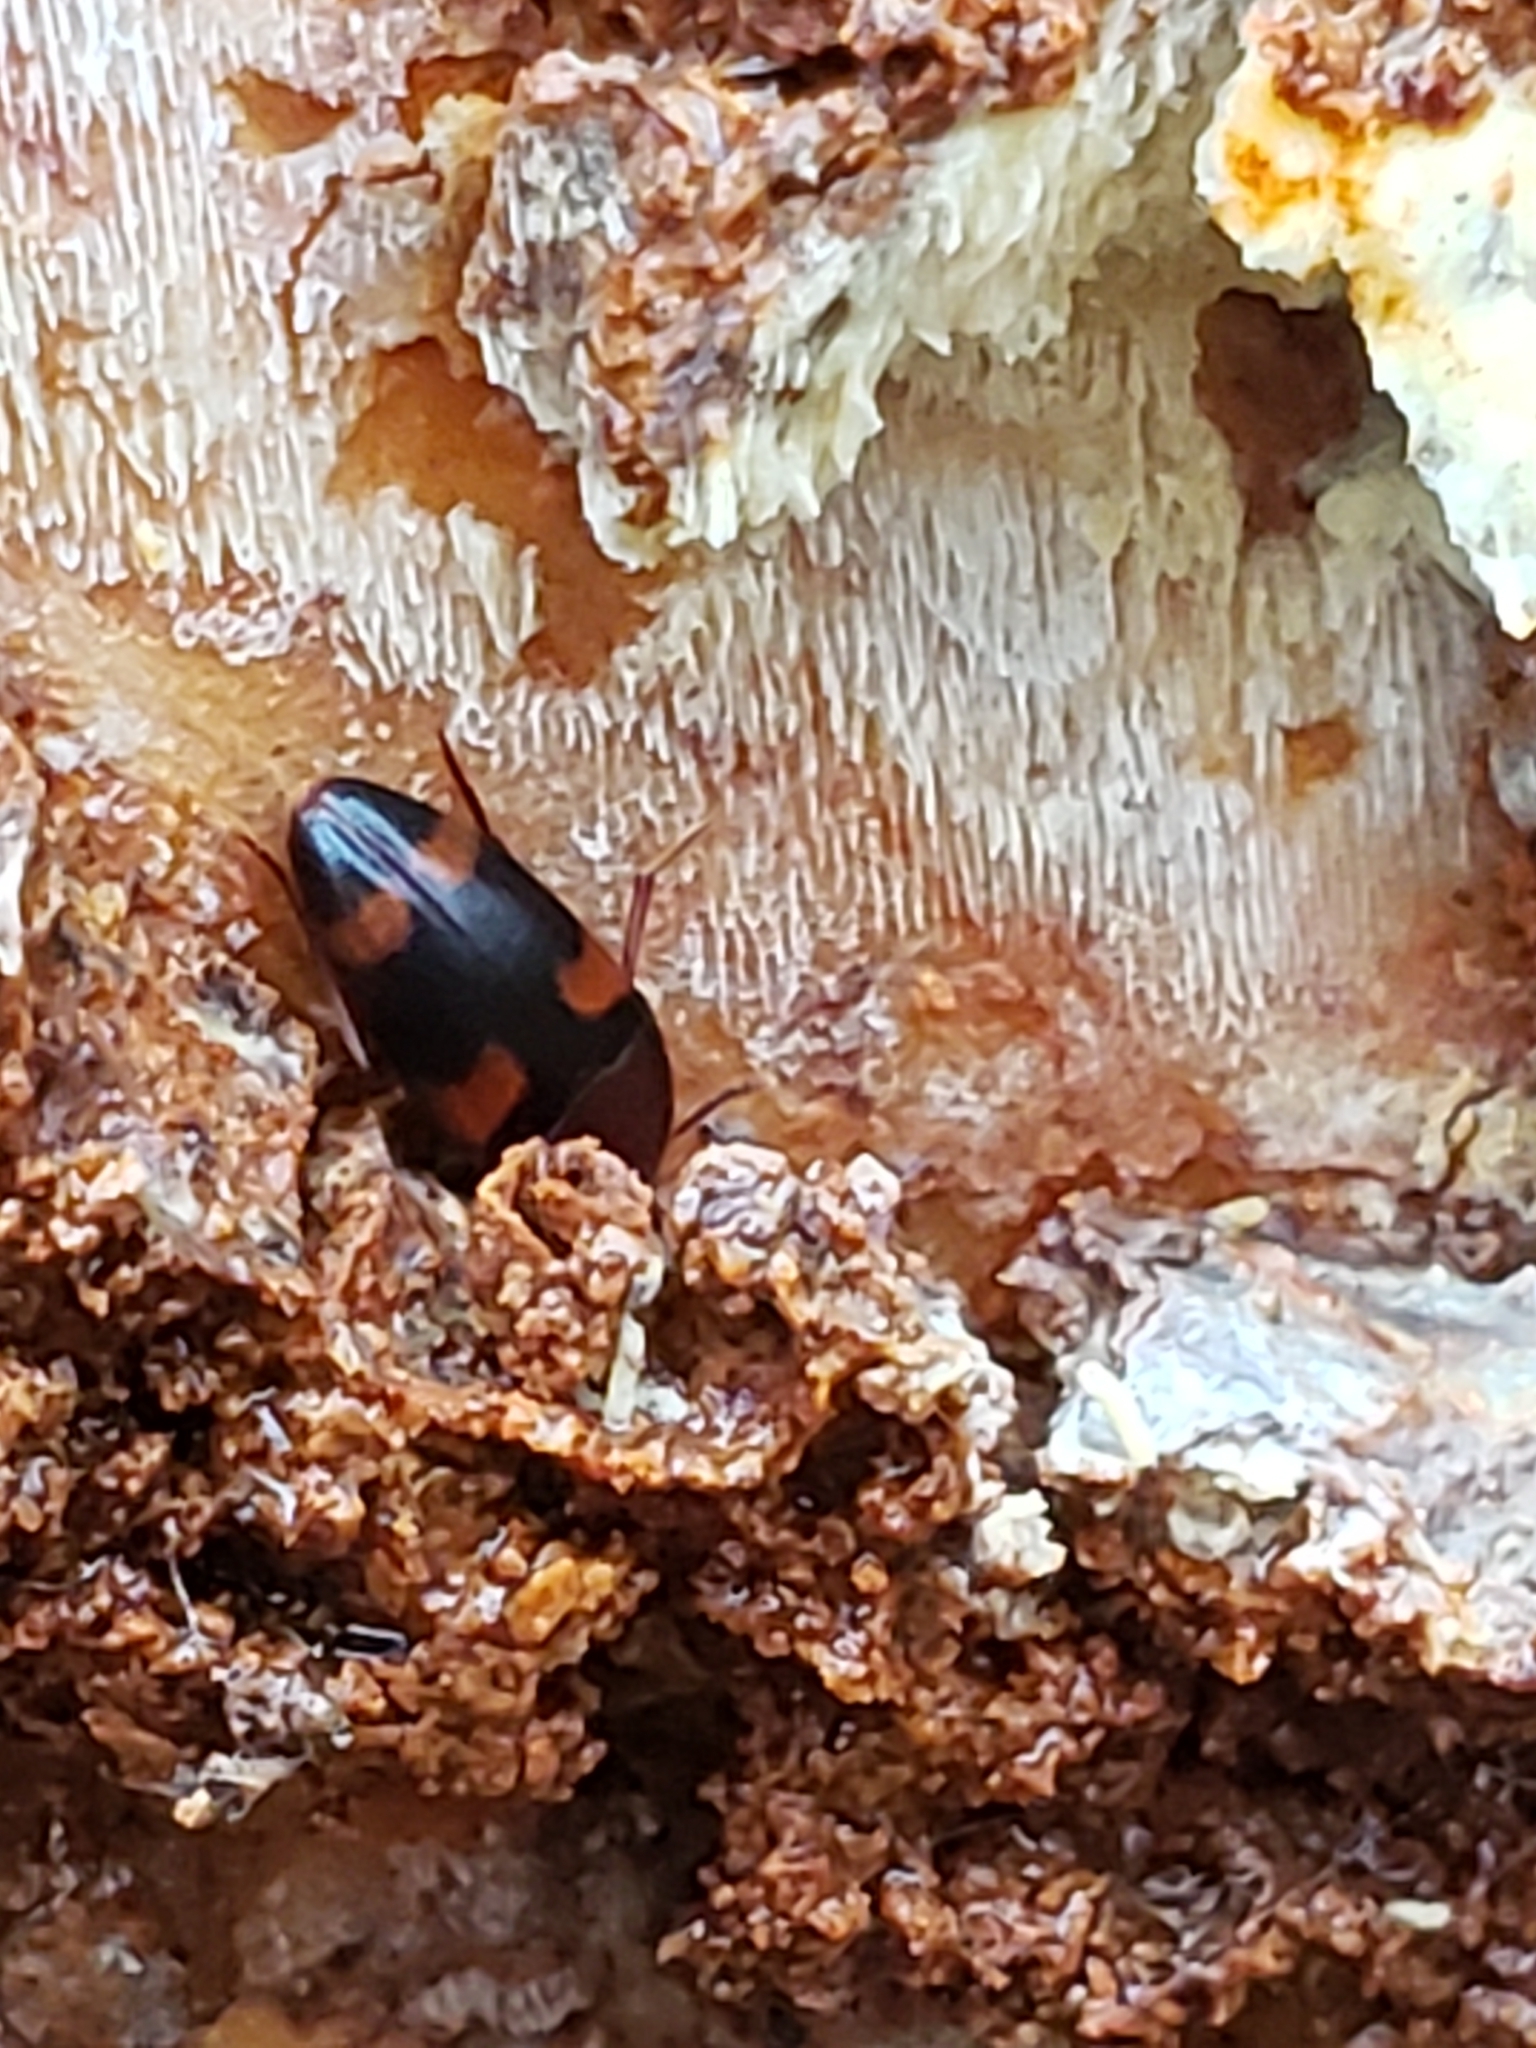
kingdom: Animalia
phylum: Arthropoda
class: Insecta
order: Coleoptera
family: Tetratomidae
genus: Holostrophus
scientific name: Holostrophus bifasciatus
